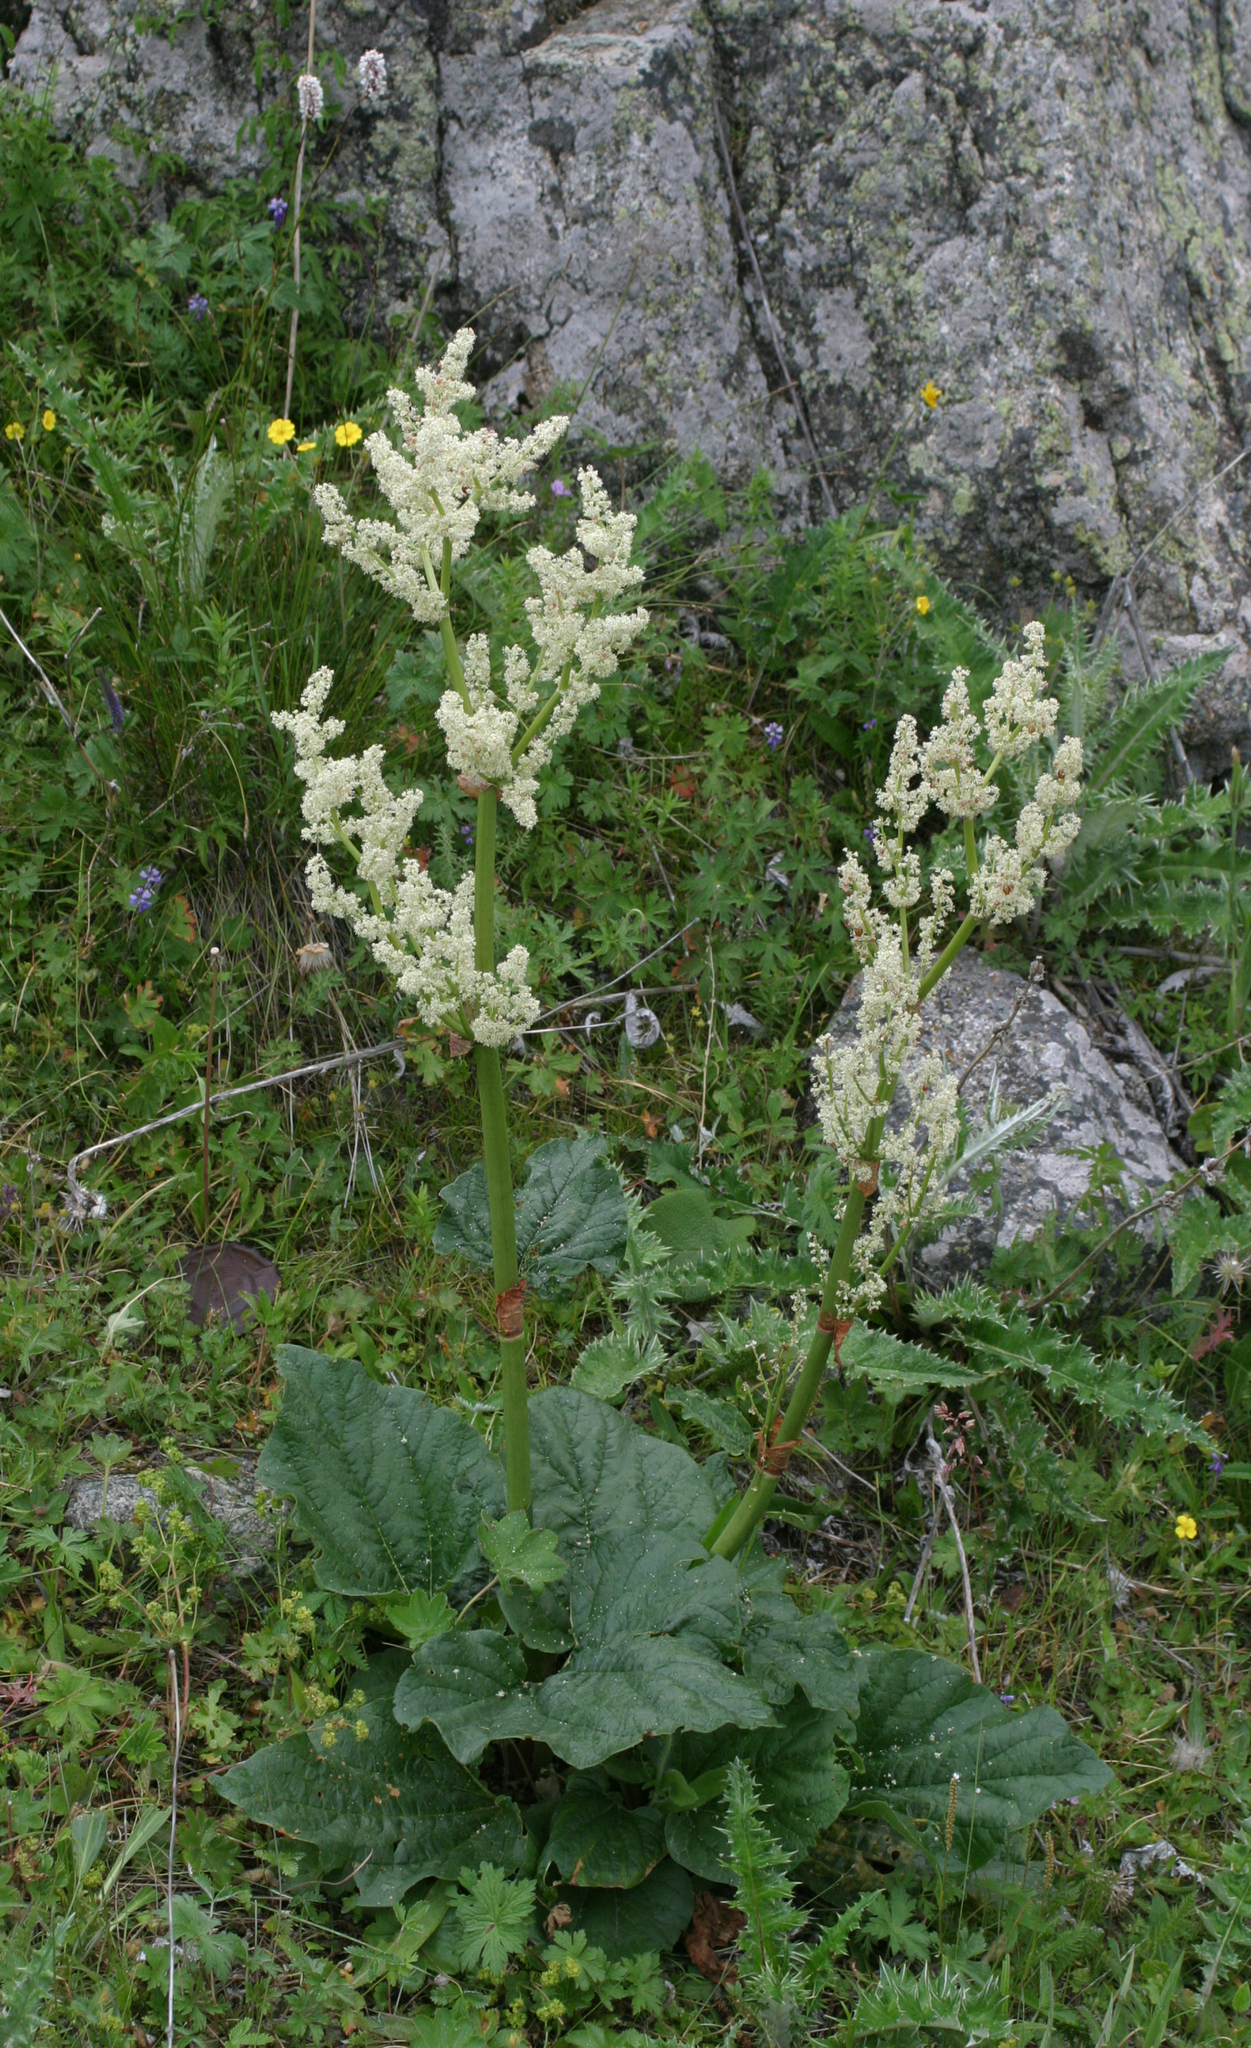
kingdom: Plantae
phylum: Tracheophyta
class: Magnoliopsida
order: Caryophyllales
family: Polygonaceae
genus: Rheum
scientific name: Rheum wittrockii
